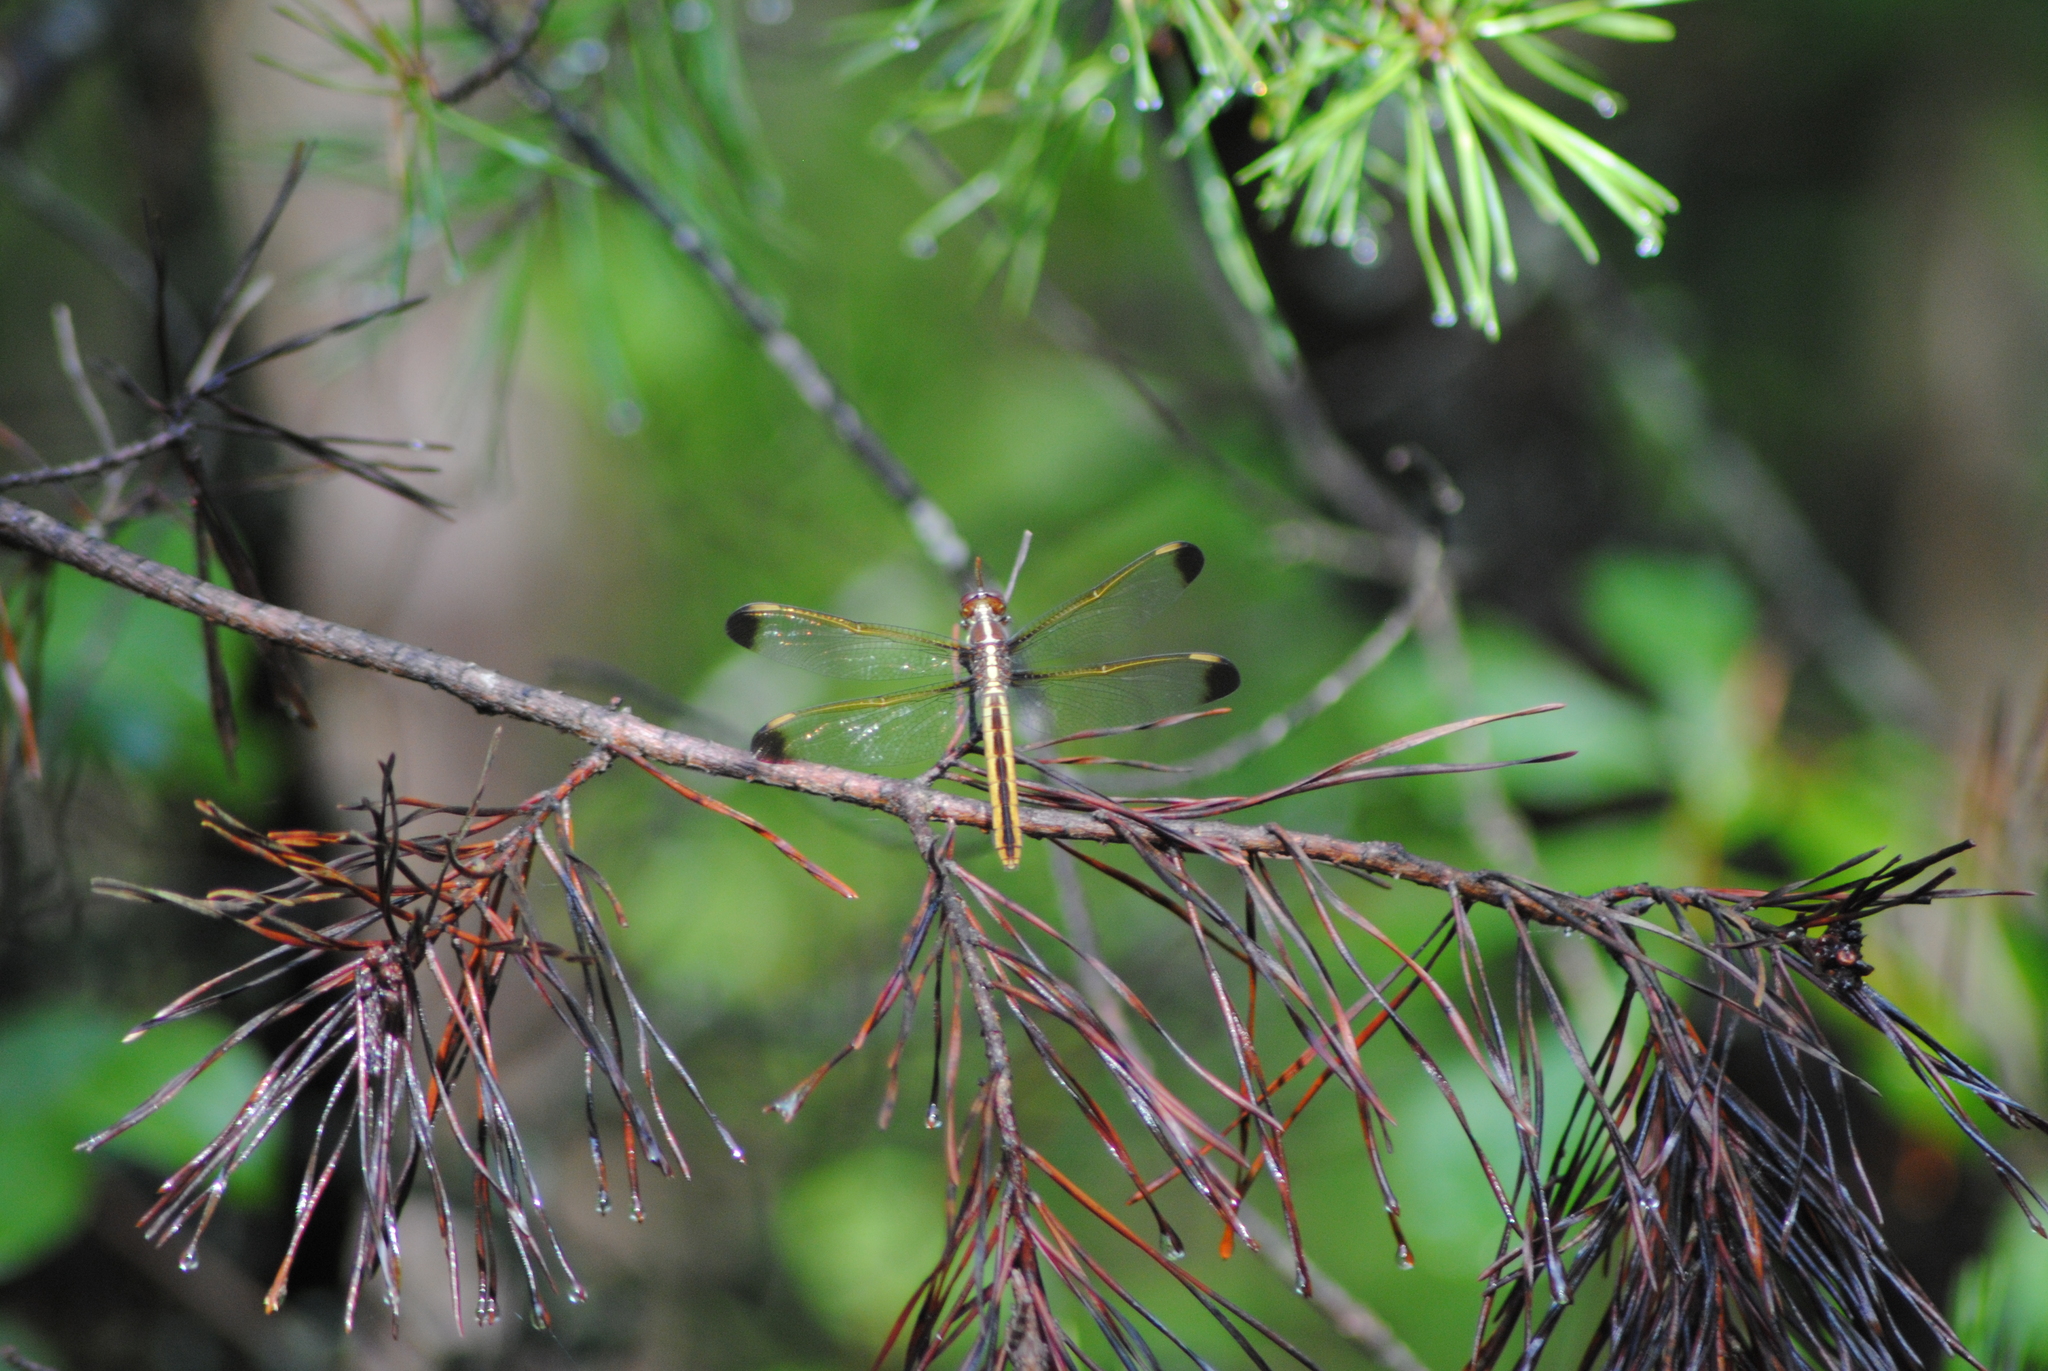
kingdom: Animalia
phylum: Arthropoda
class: Insecta
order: Odonata
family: Libellulidae
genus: Libellula
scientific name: Libellula flavida
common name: Yellow-sided skimmer
